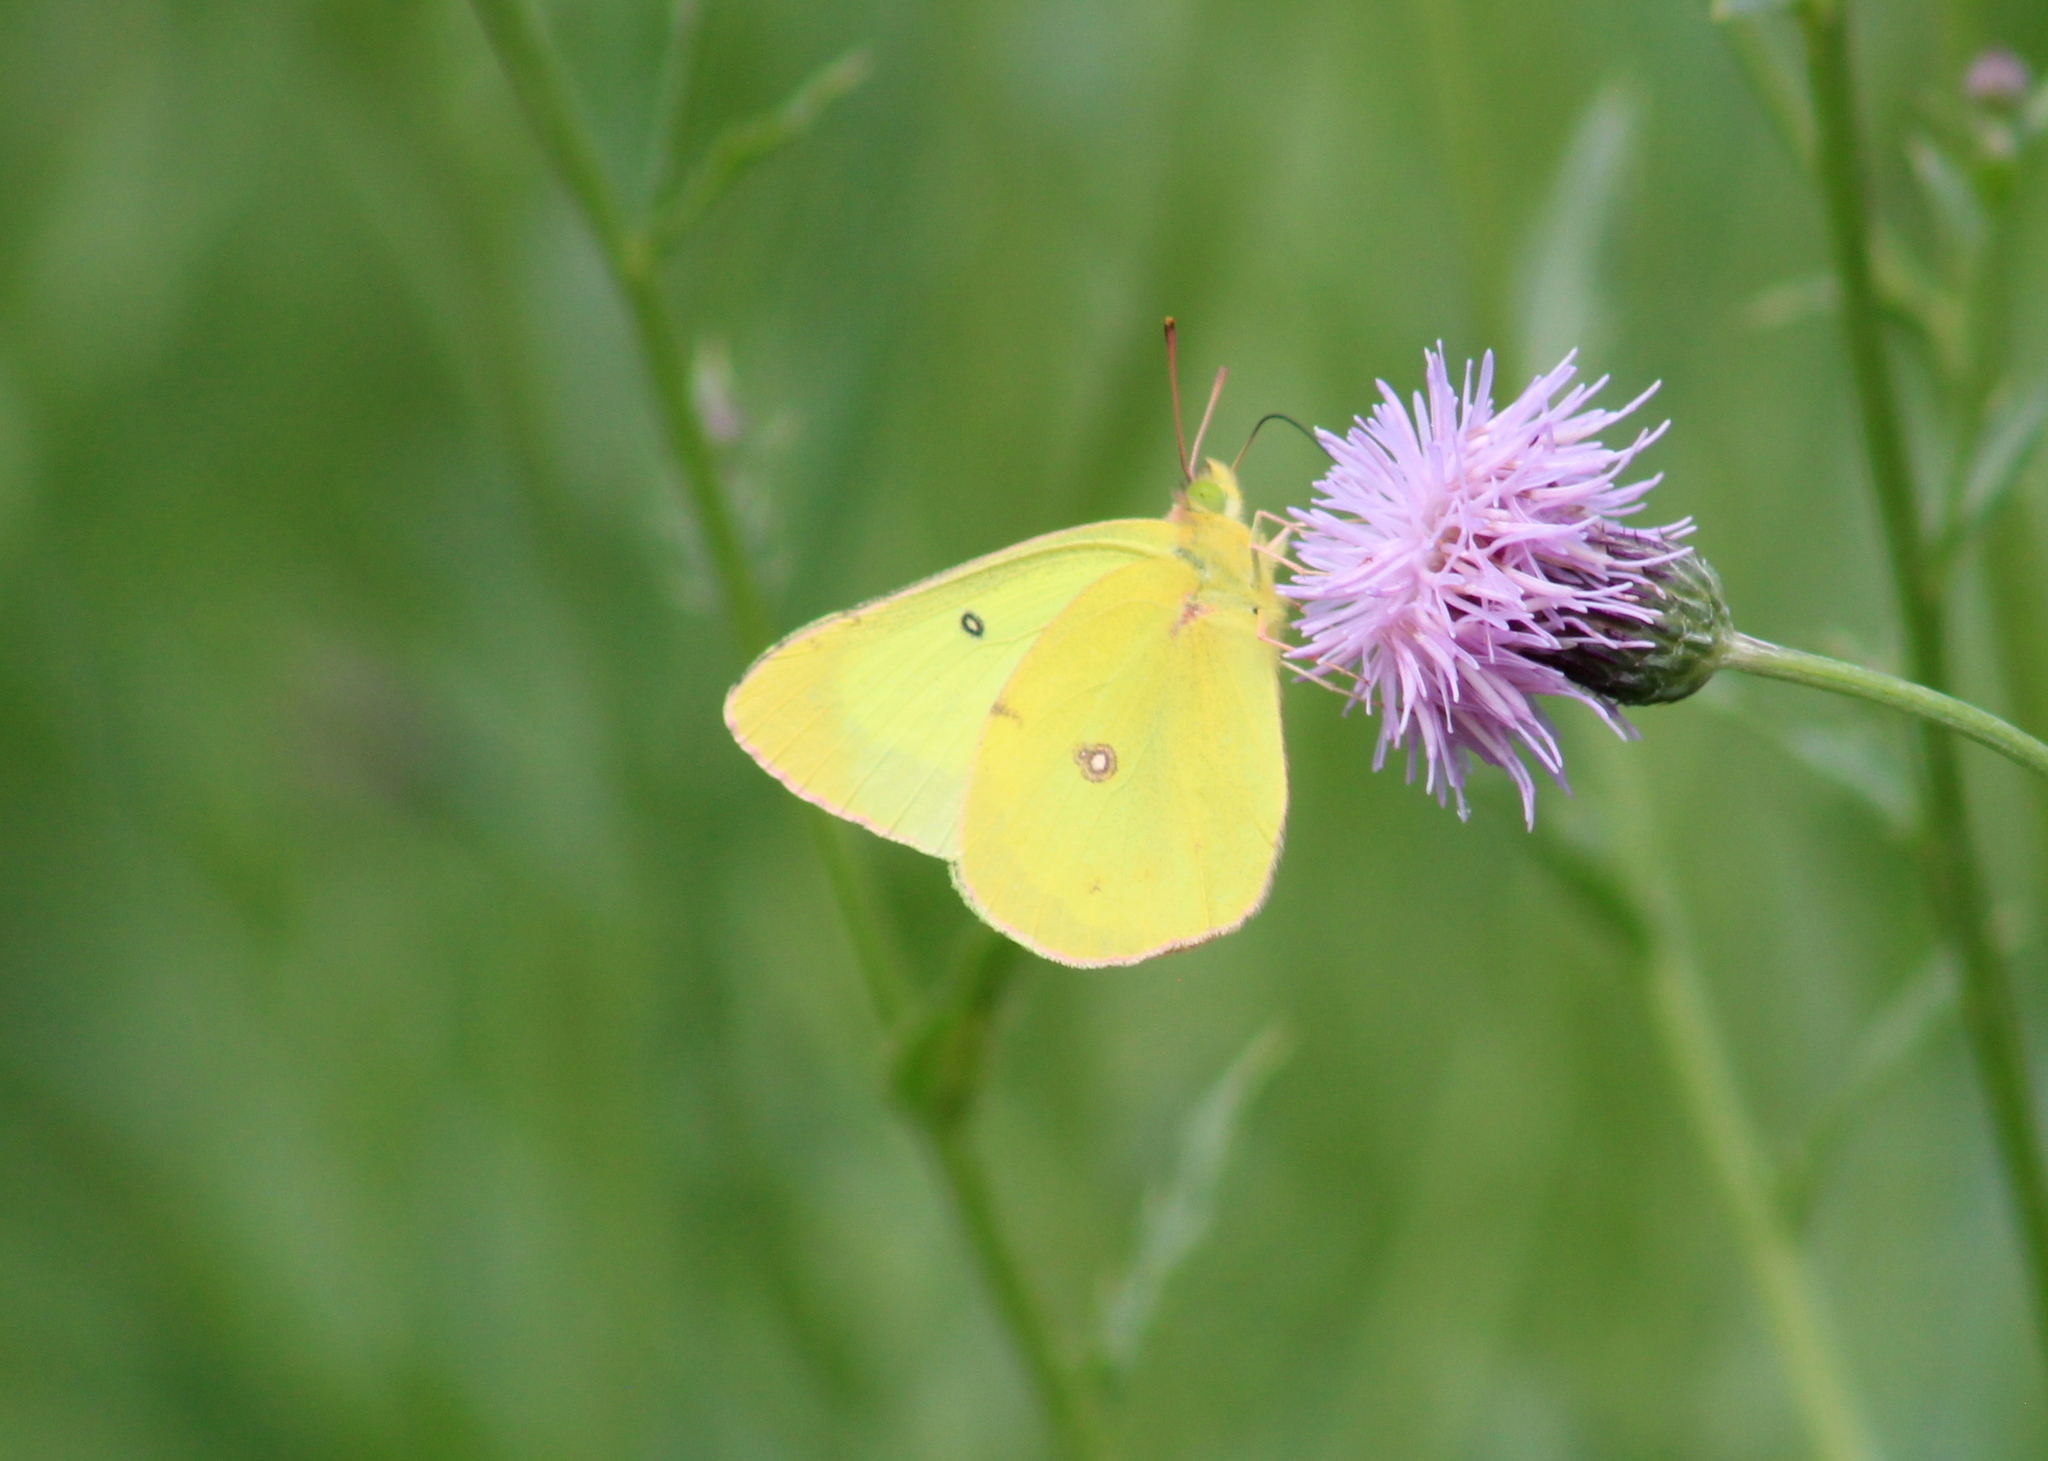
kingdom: Animalia
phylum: Arthropoda
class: Insecta
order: Lepidoptera
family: Pieridae
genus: Colias
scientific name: Colias philodice
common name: Clouded sulphur
